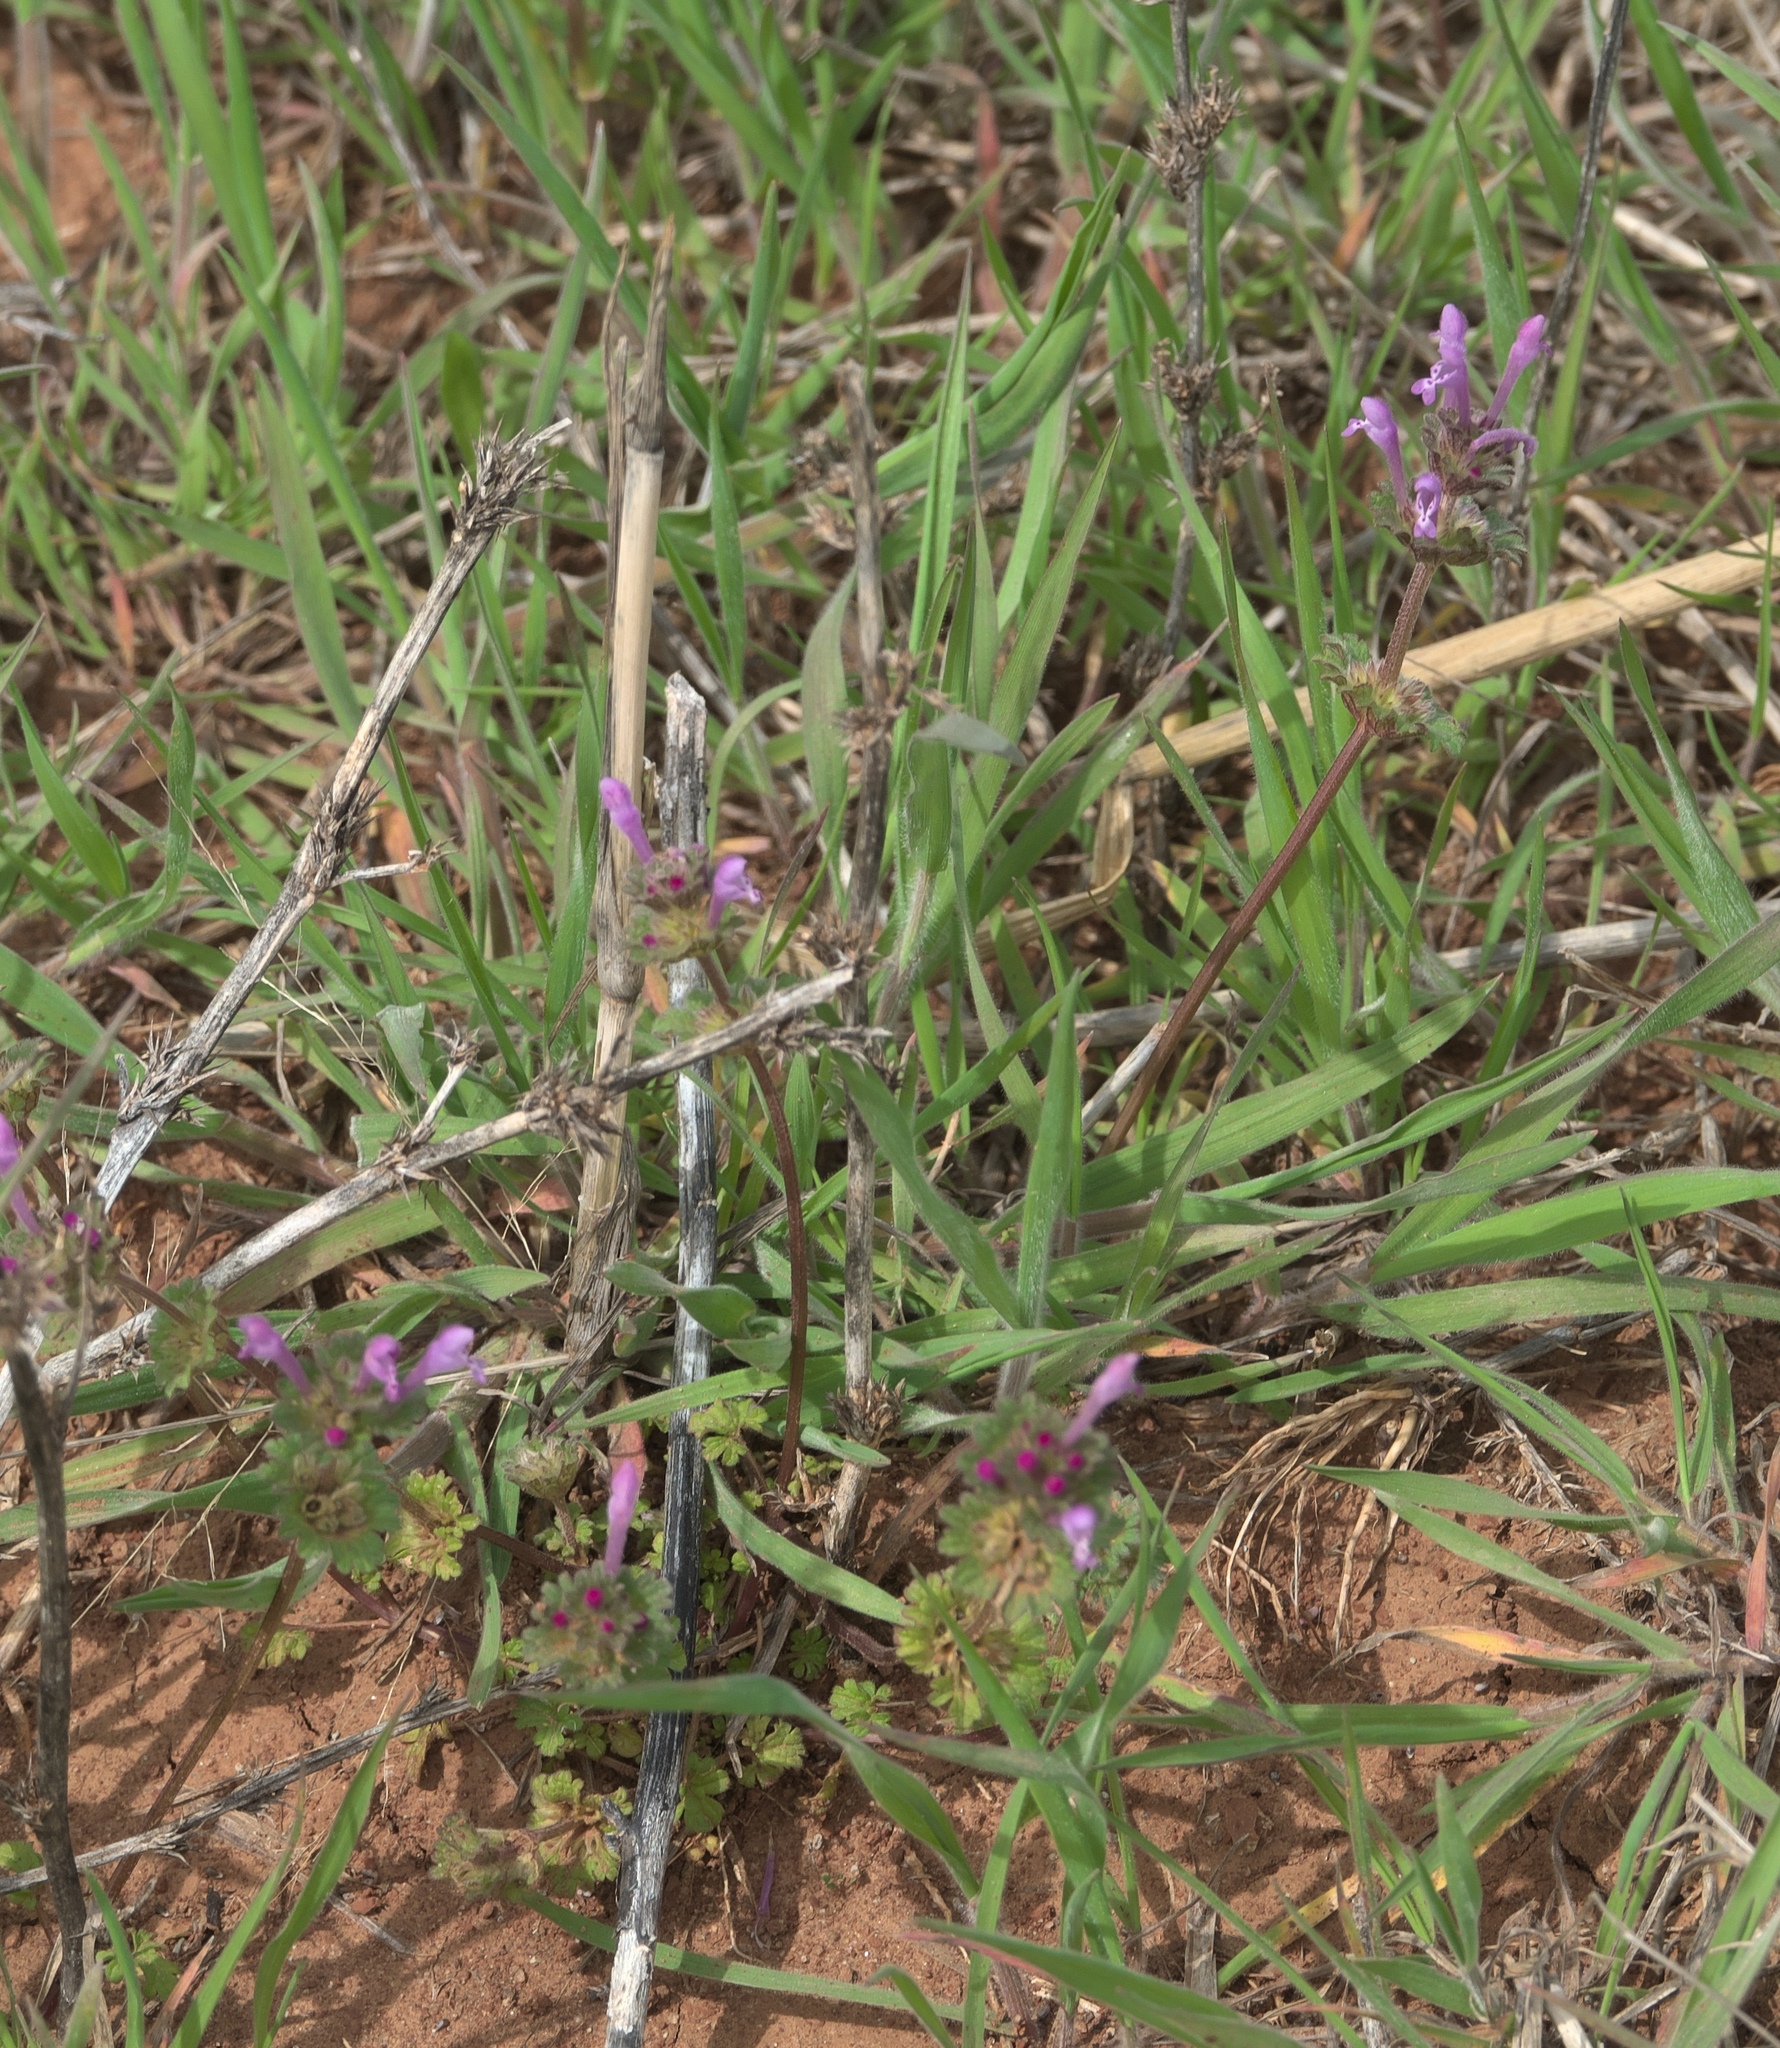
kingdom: Plantae
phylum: Tracheophyta
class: Magnoliopsida
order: Lamiales
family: Lamiaceae
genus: Lamium
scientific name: Lamium amplexicaule
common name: Henbit dead-nettle
